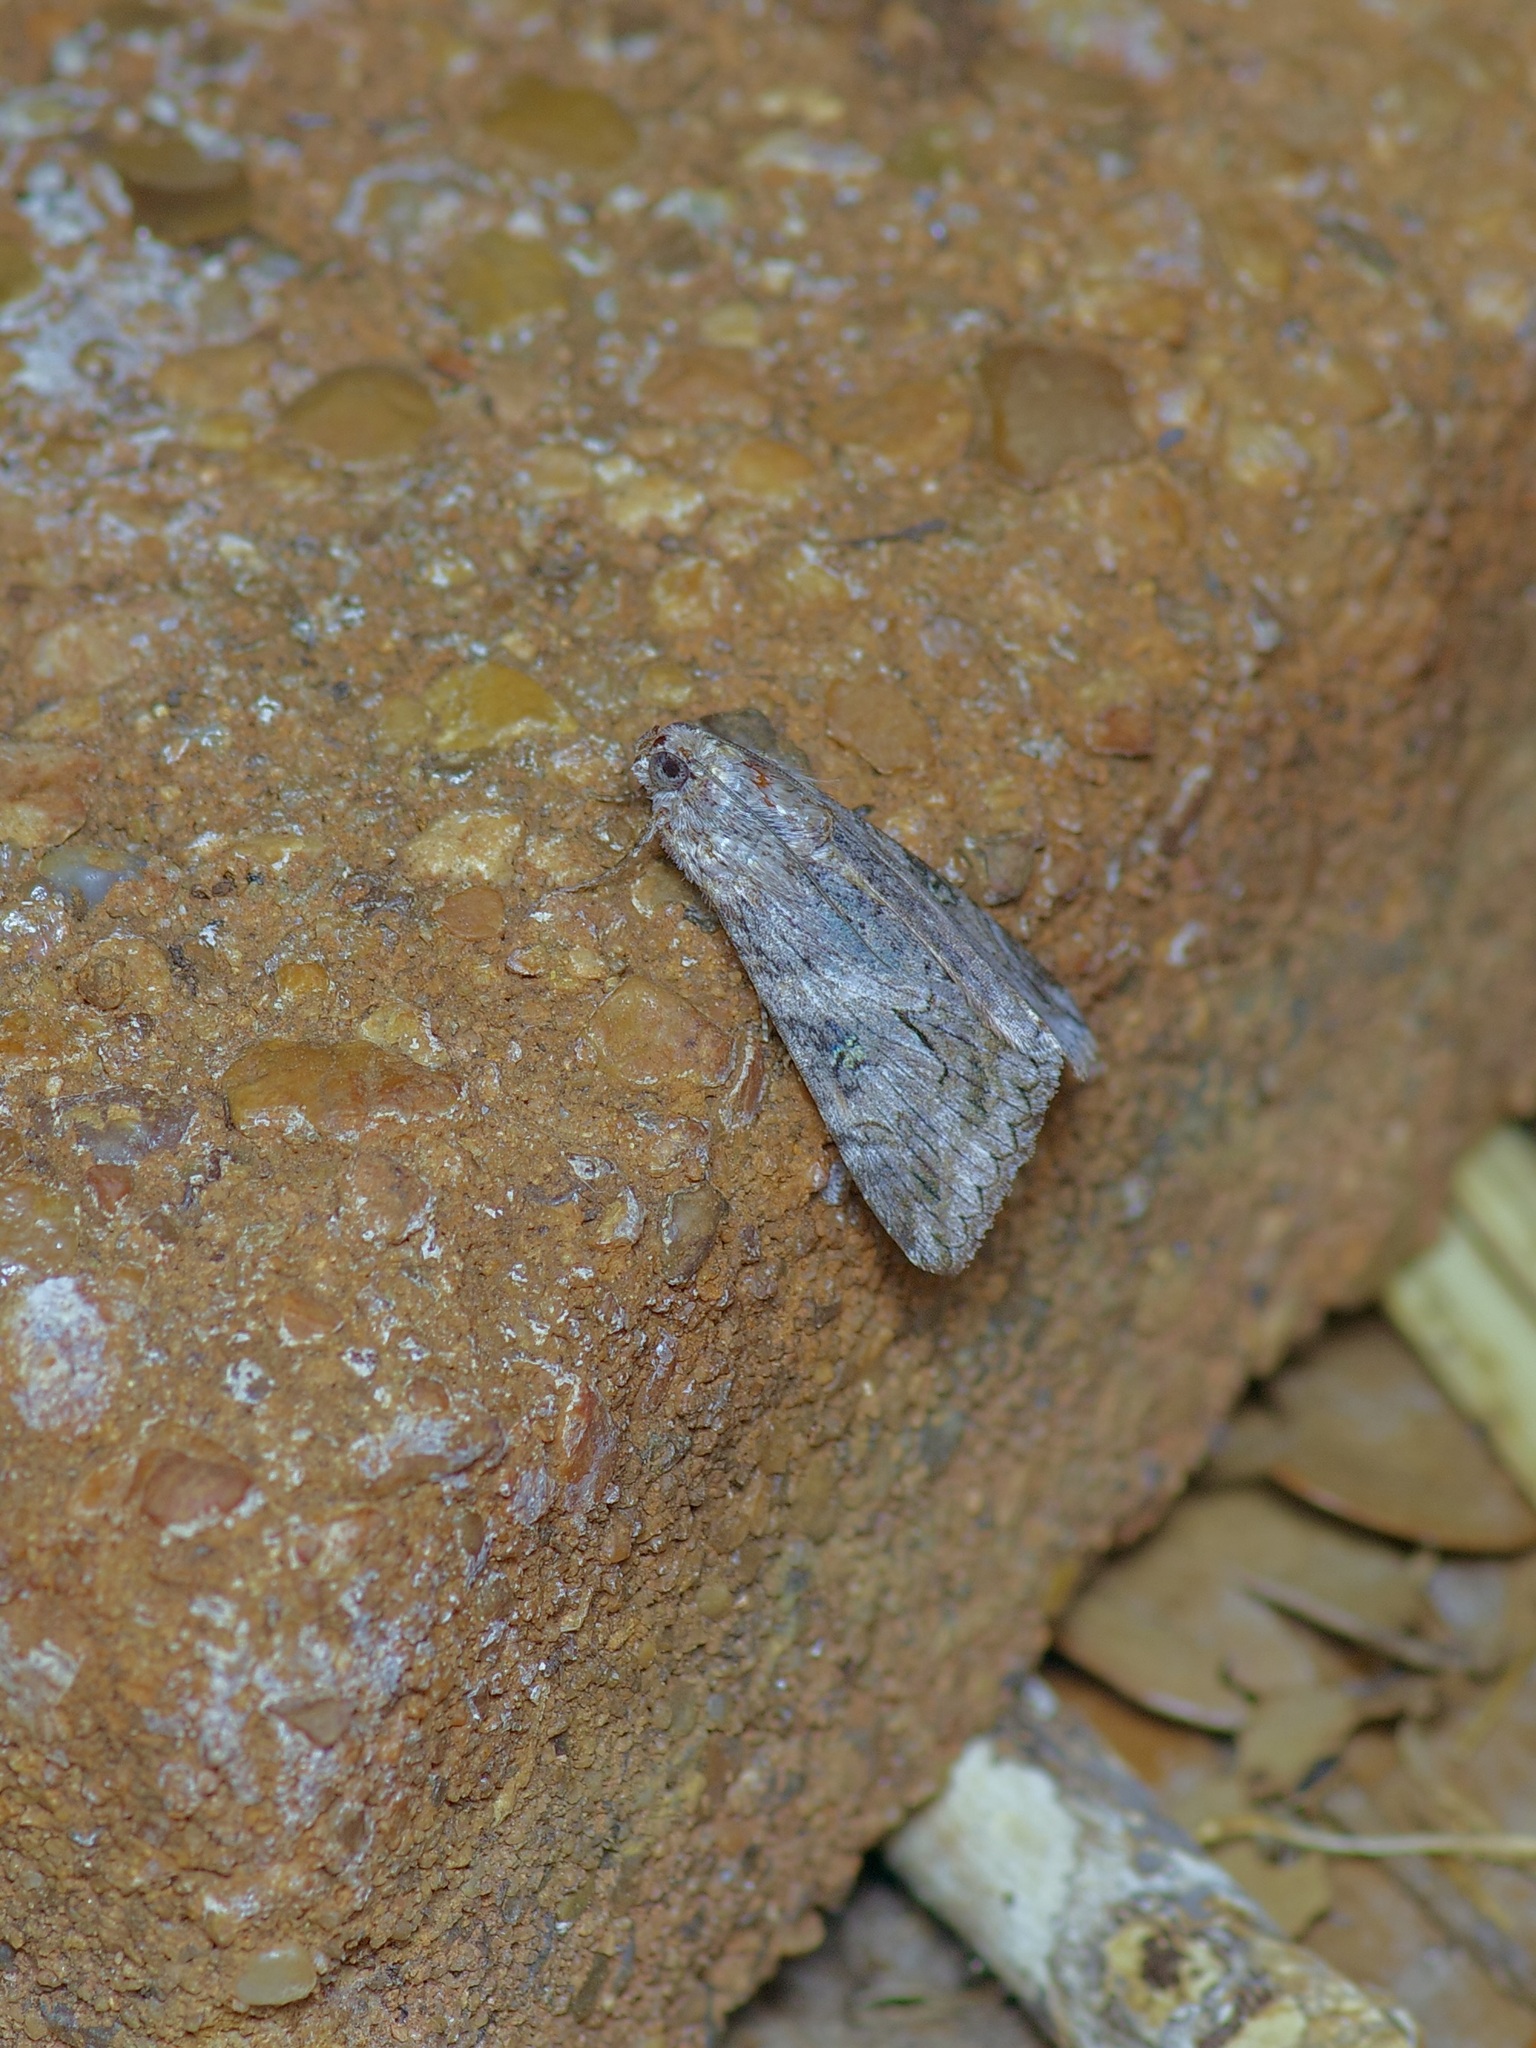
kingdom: Animalia
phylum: Arthropoda
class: Insecta
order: Lepidoptera
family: Erebidae
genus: Melipotis
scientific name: Melipotis acontioides
